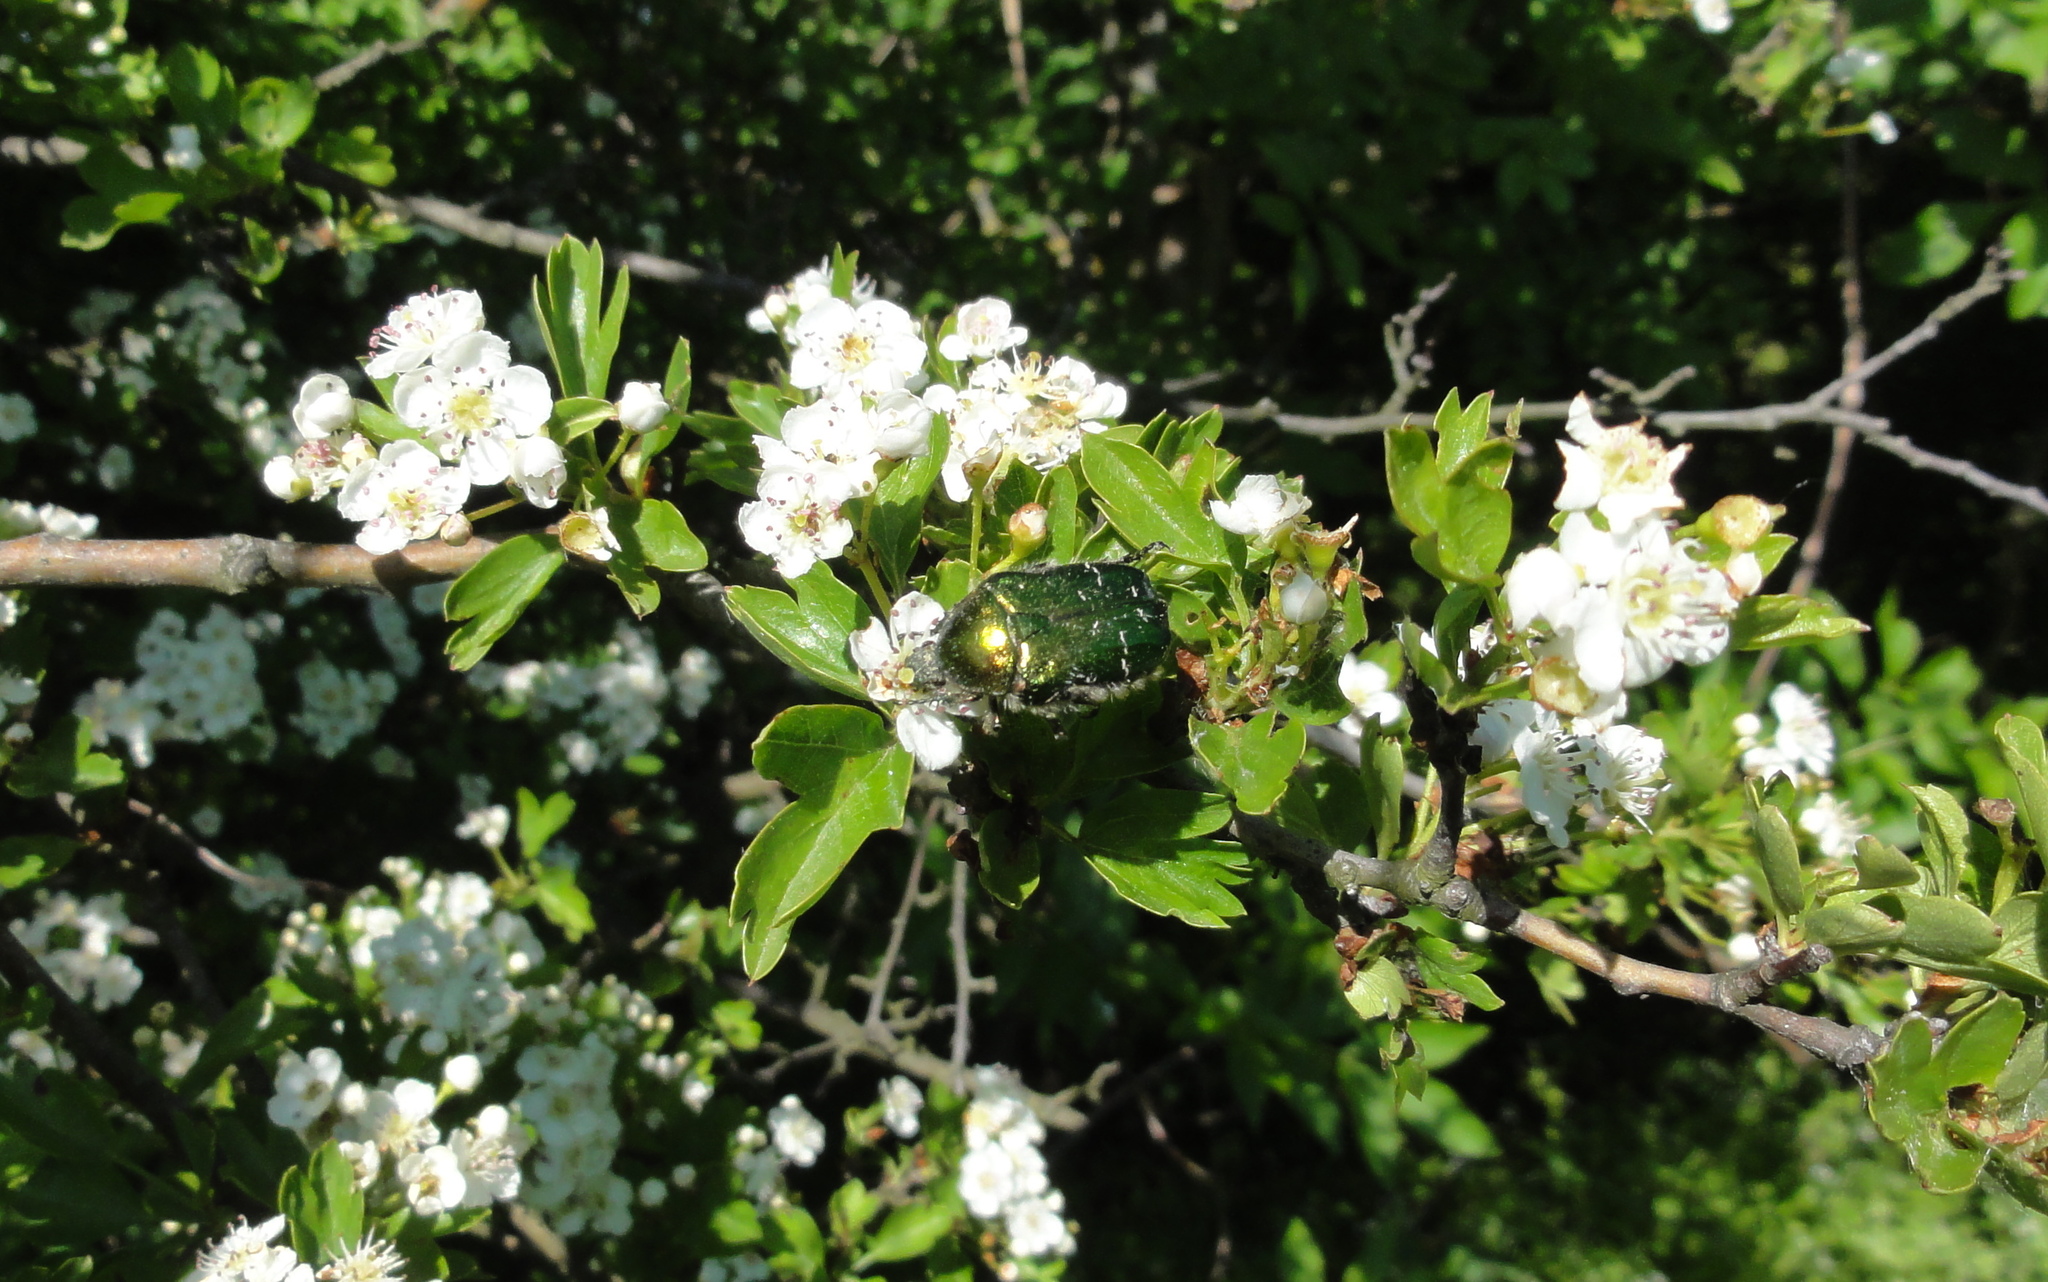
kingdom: Animalia
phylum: Arthropoda
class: Insecta
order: Coleoptera
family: Scarabaeidae
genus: Cetonia
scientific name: Cetonia aurata
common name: Rose chafer
